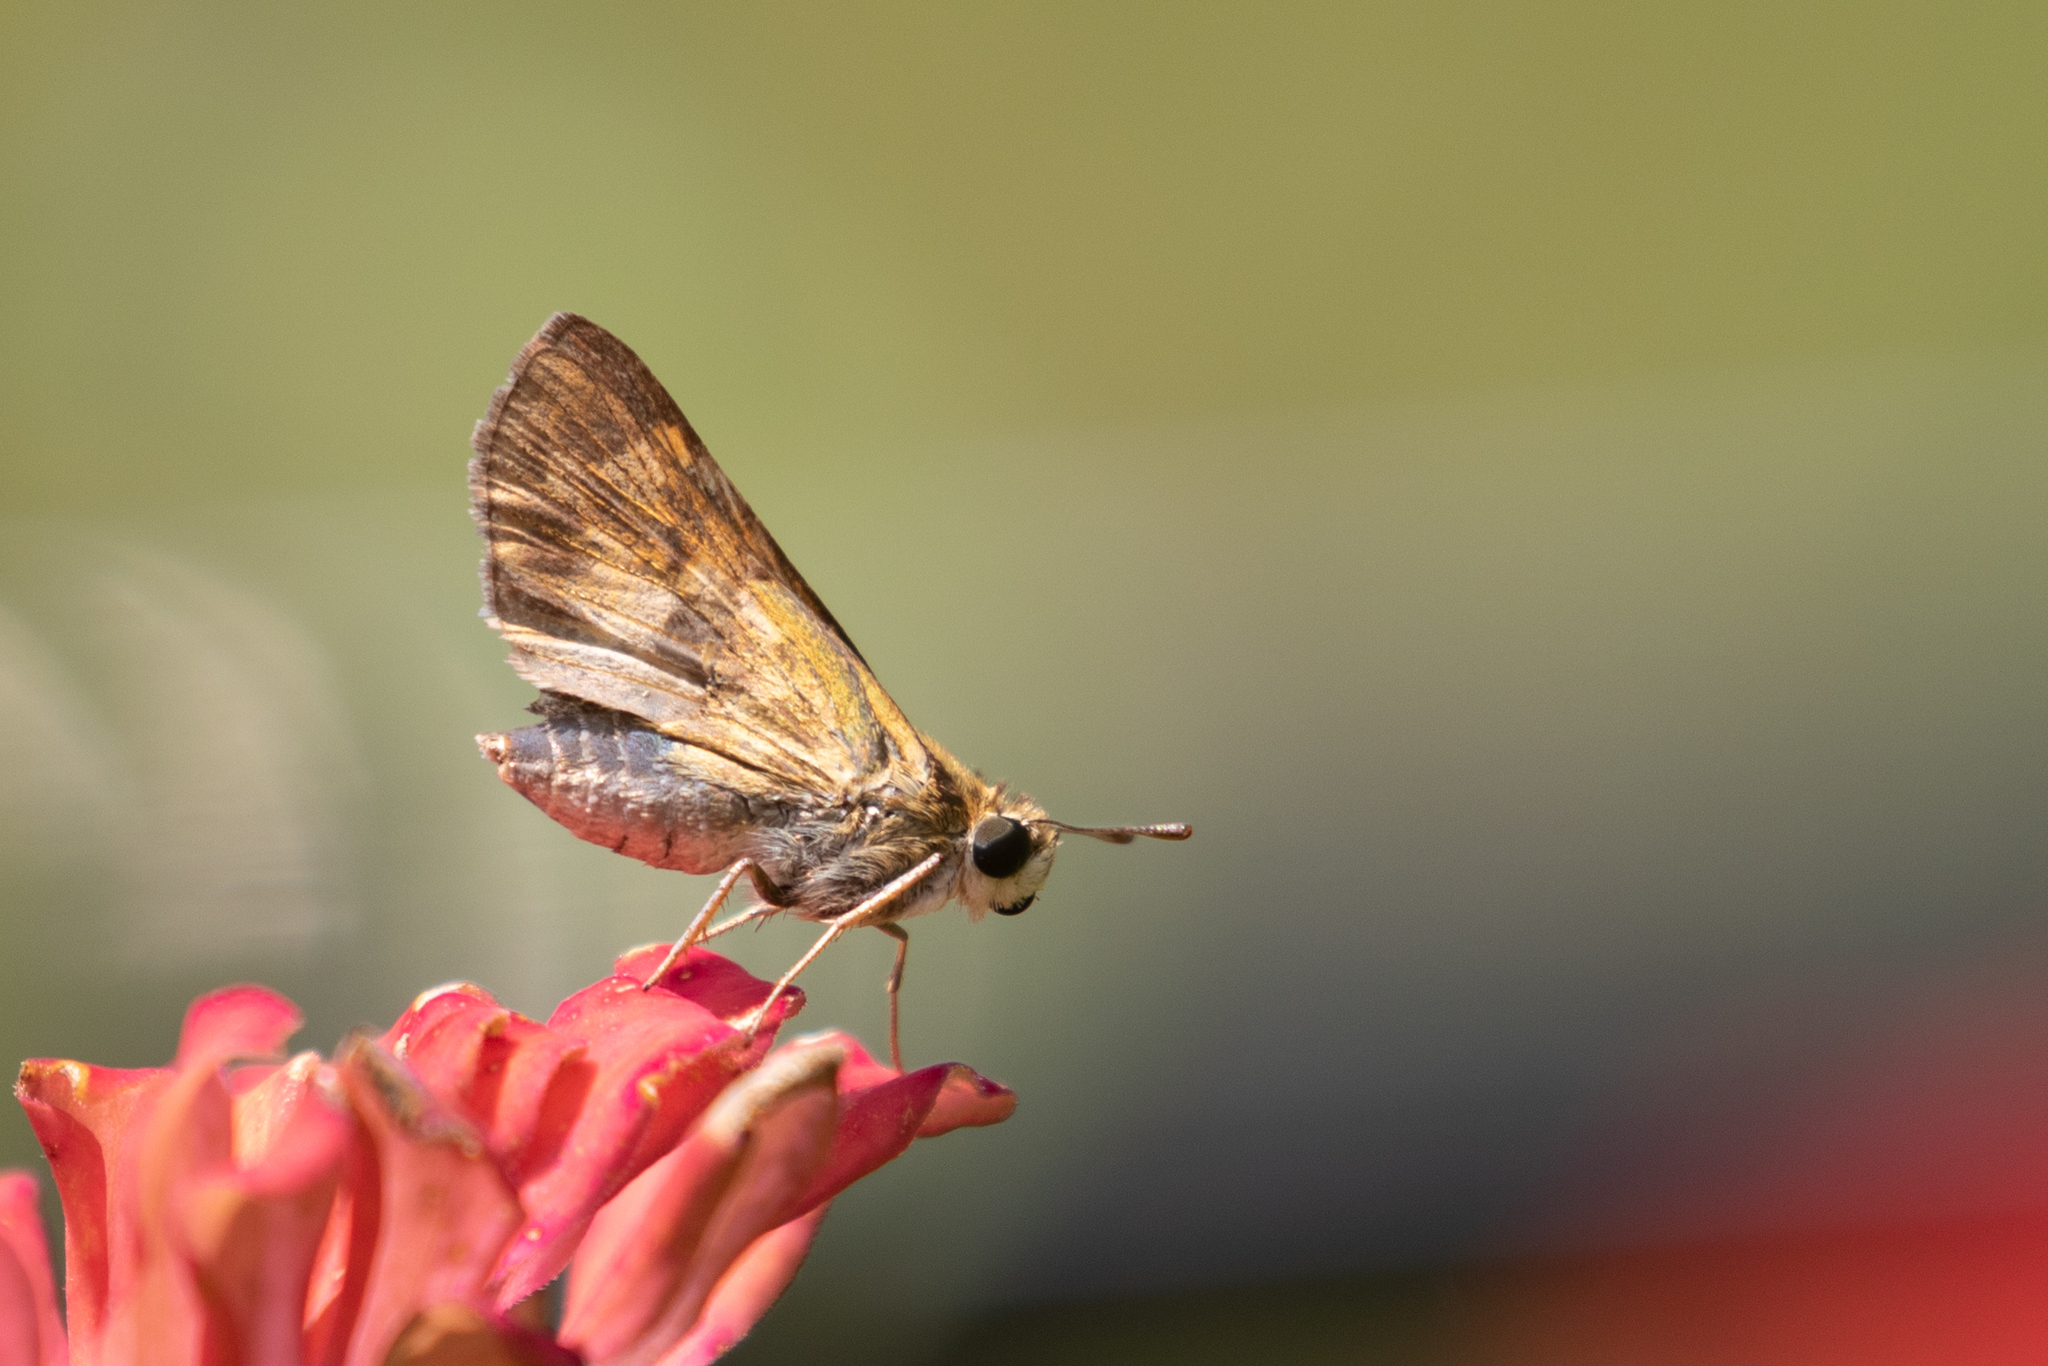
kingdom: Animalia
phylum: Arthropoda
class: Insecta
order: Lepidoptera
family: Hesperiidae
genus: Hylephila
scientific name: Hylephila phyleus
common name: Fiery skipper
